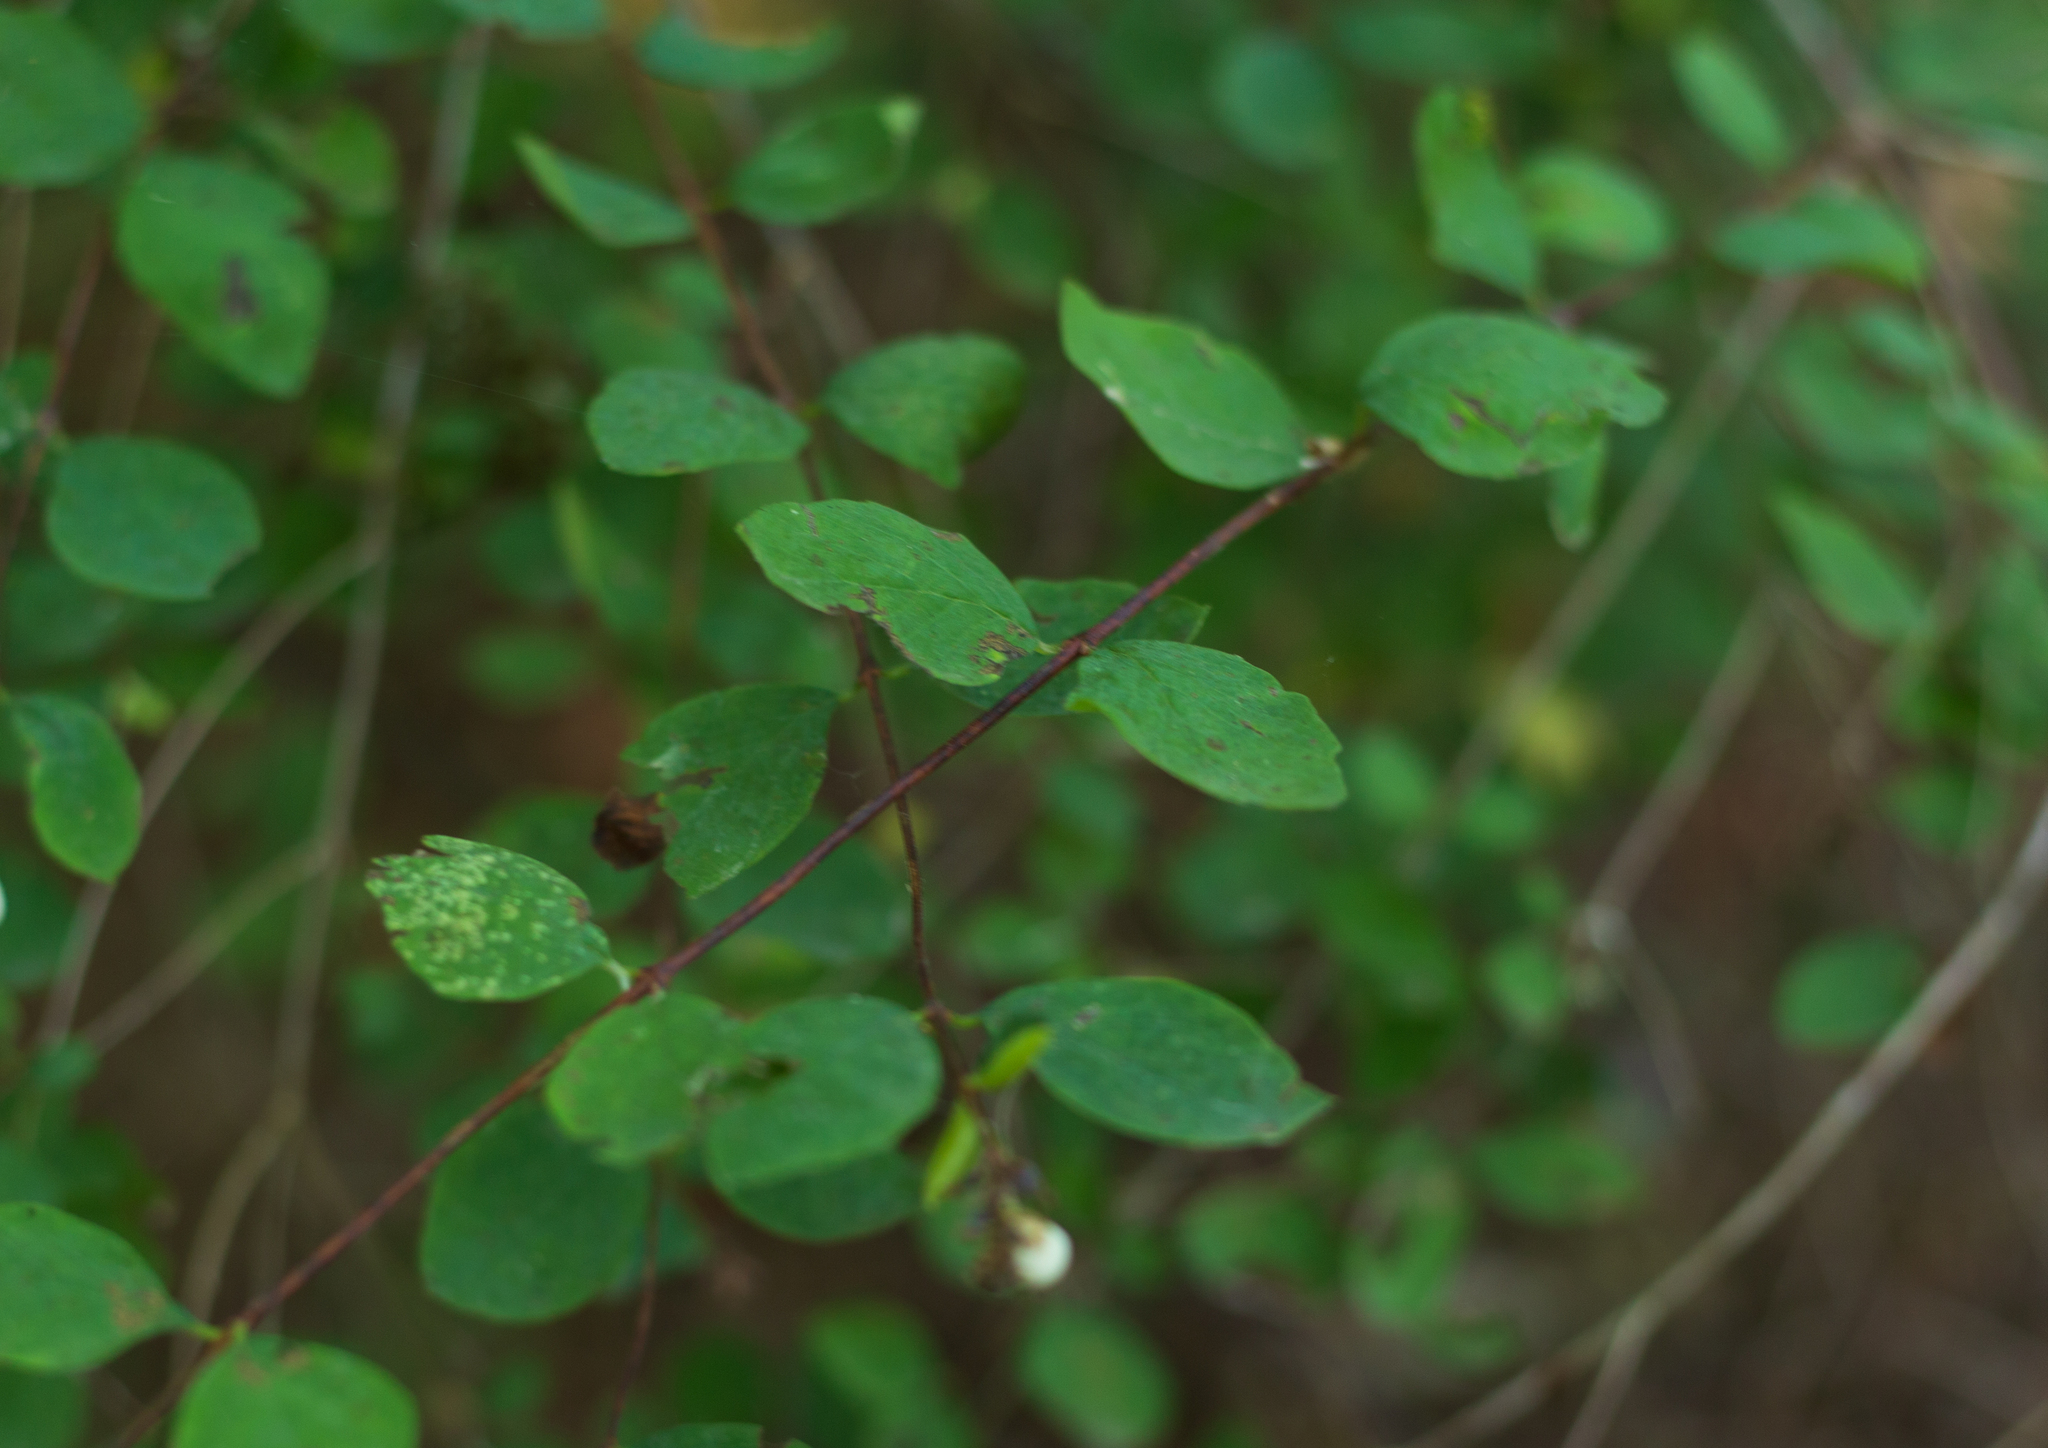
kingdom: Plantae
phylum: Tracheophyta
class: Magnoliopsida
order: Dipsacales
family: Caprifoliaceae
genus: Symphoricarpos
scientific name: Symphoricarpos albus
